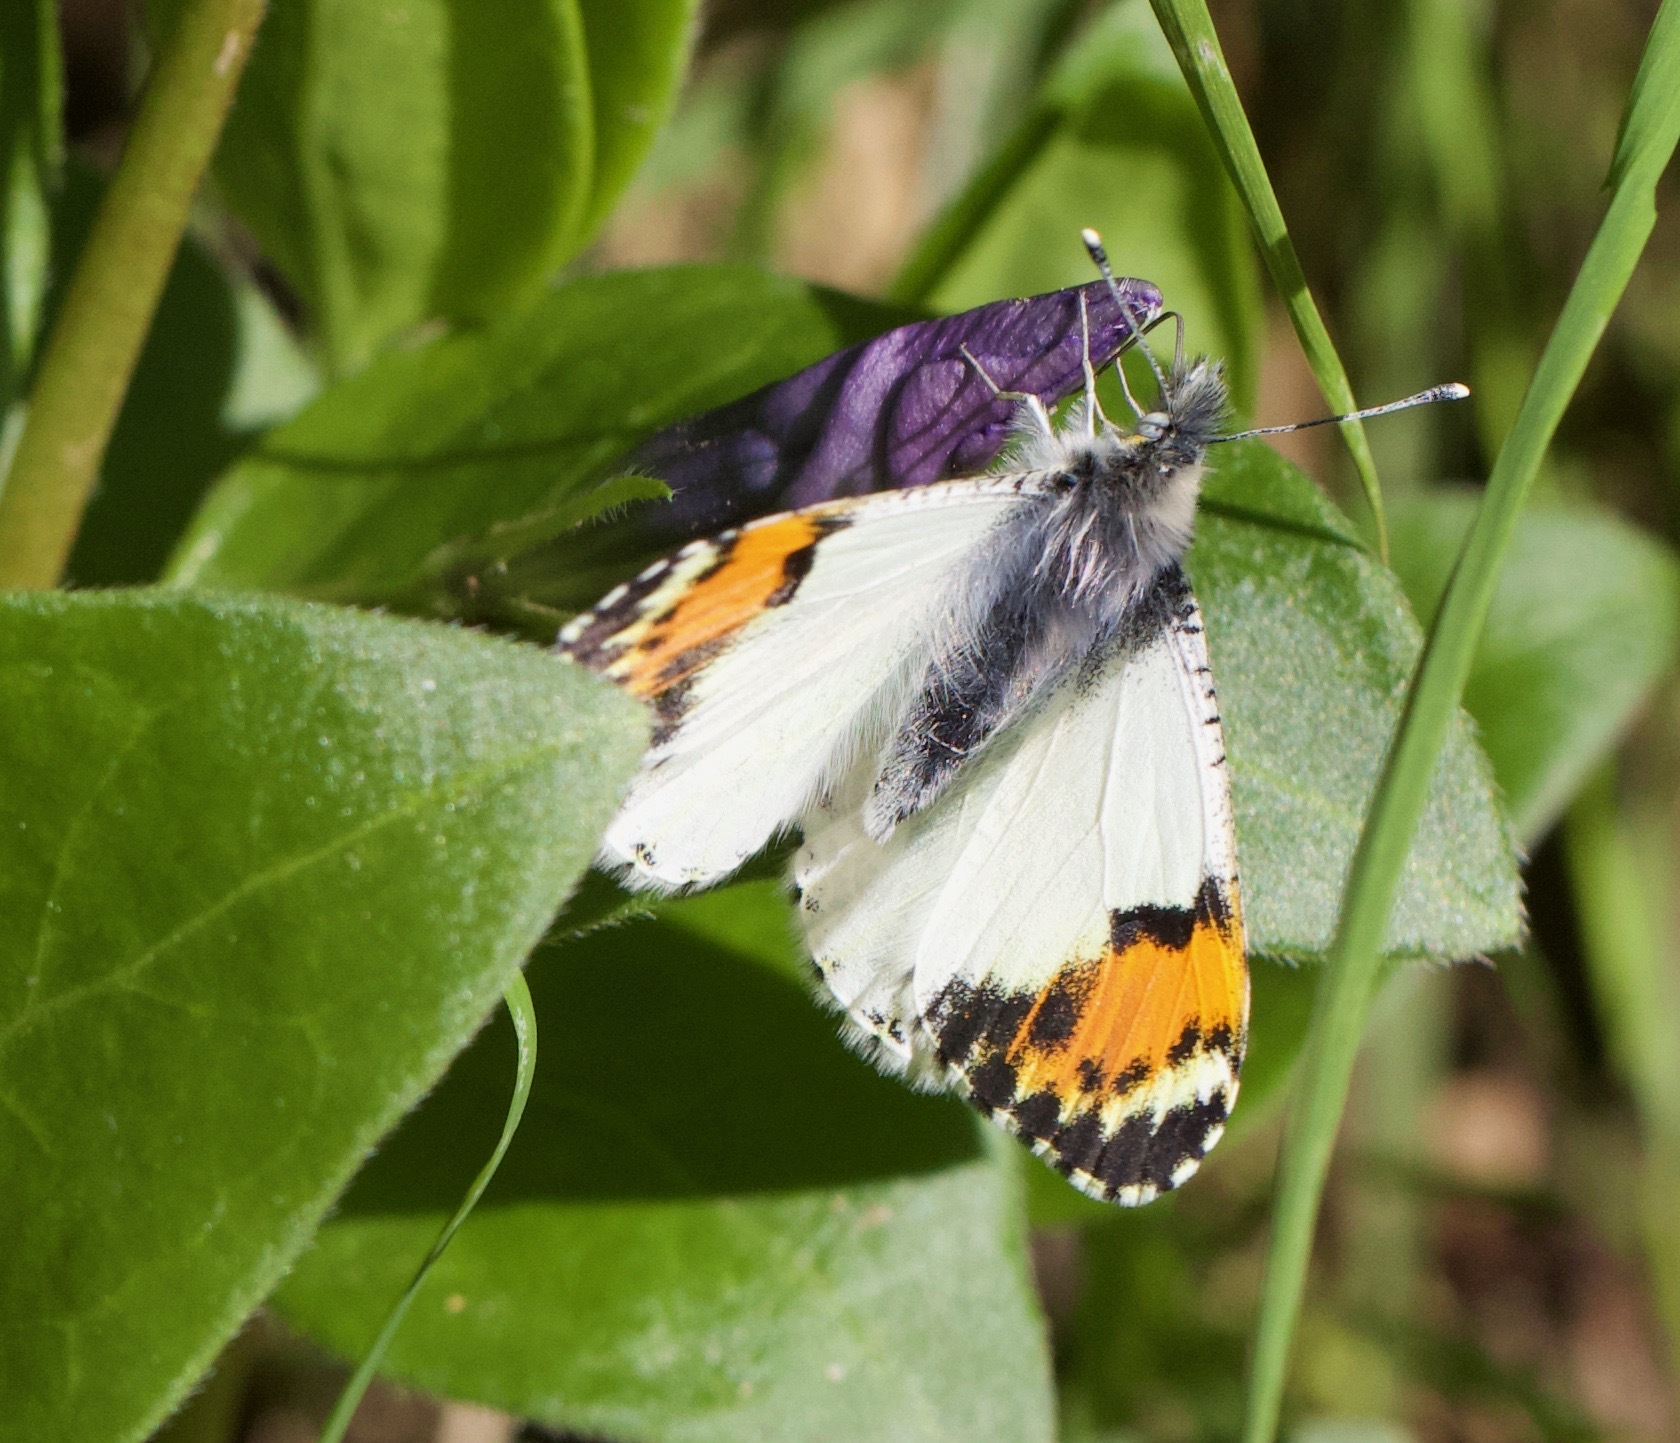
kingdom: Animalia
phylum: Arthropoda
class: Insecta
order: Lepidoptera
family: Pieridae
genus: Anthocharis
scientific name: Anthocharis sara
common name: Sara's orangetip
